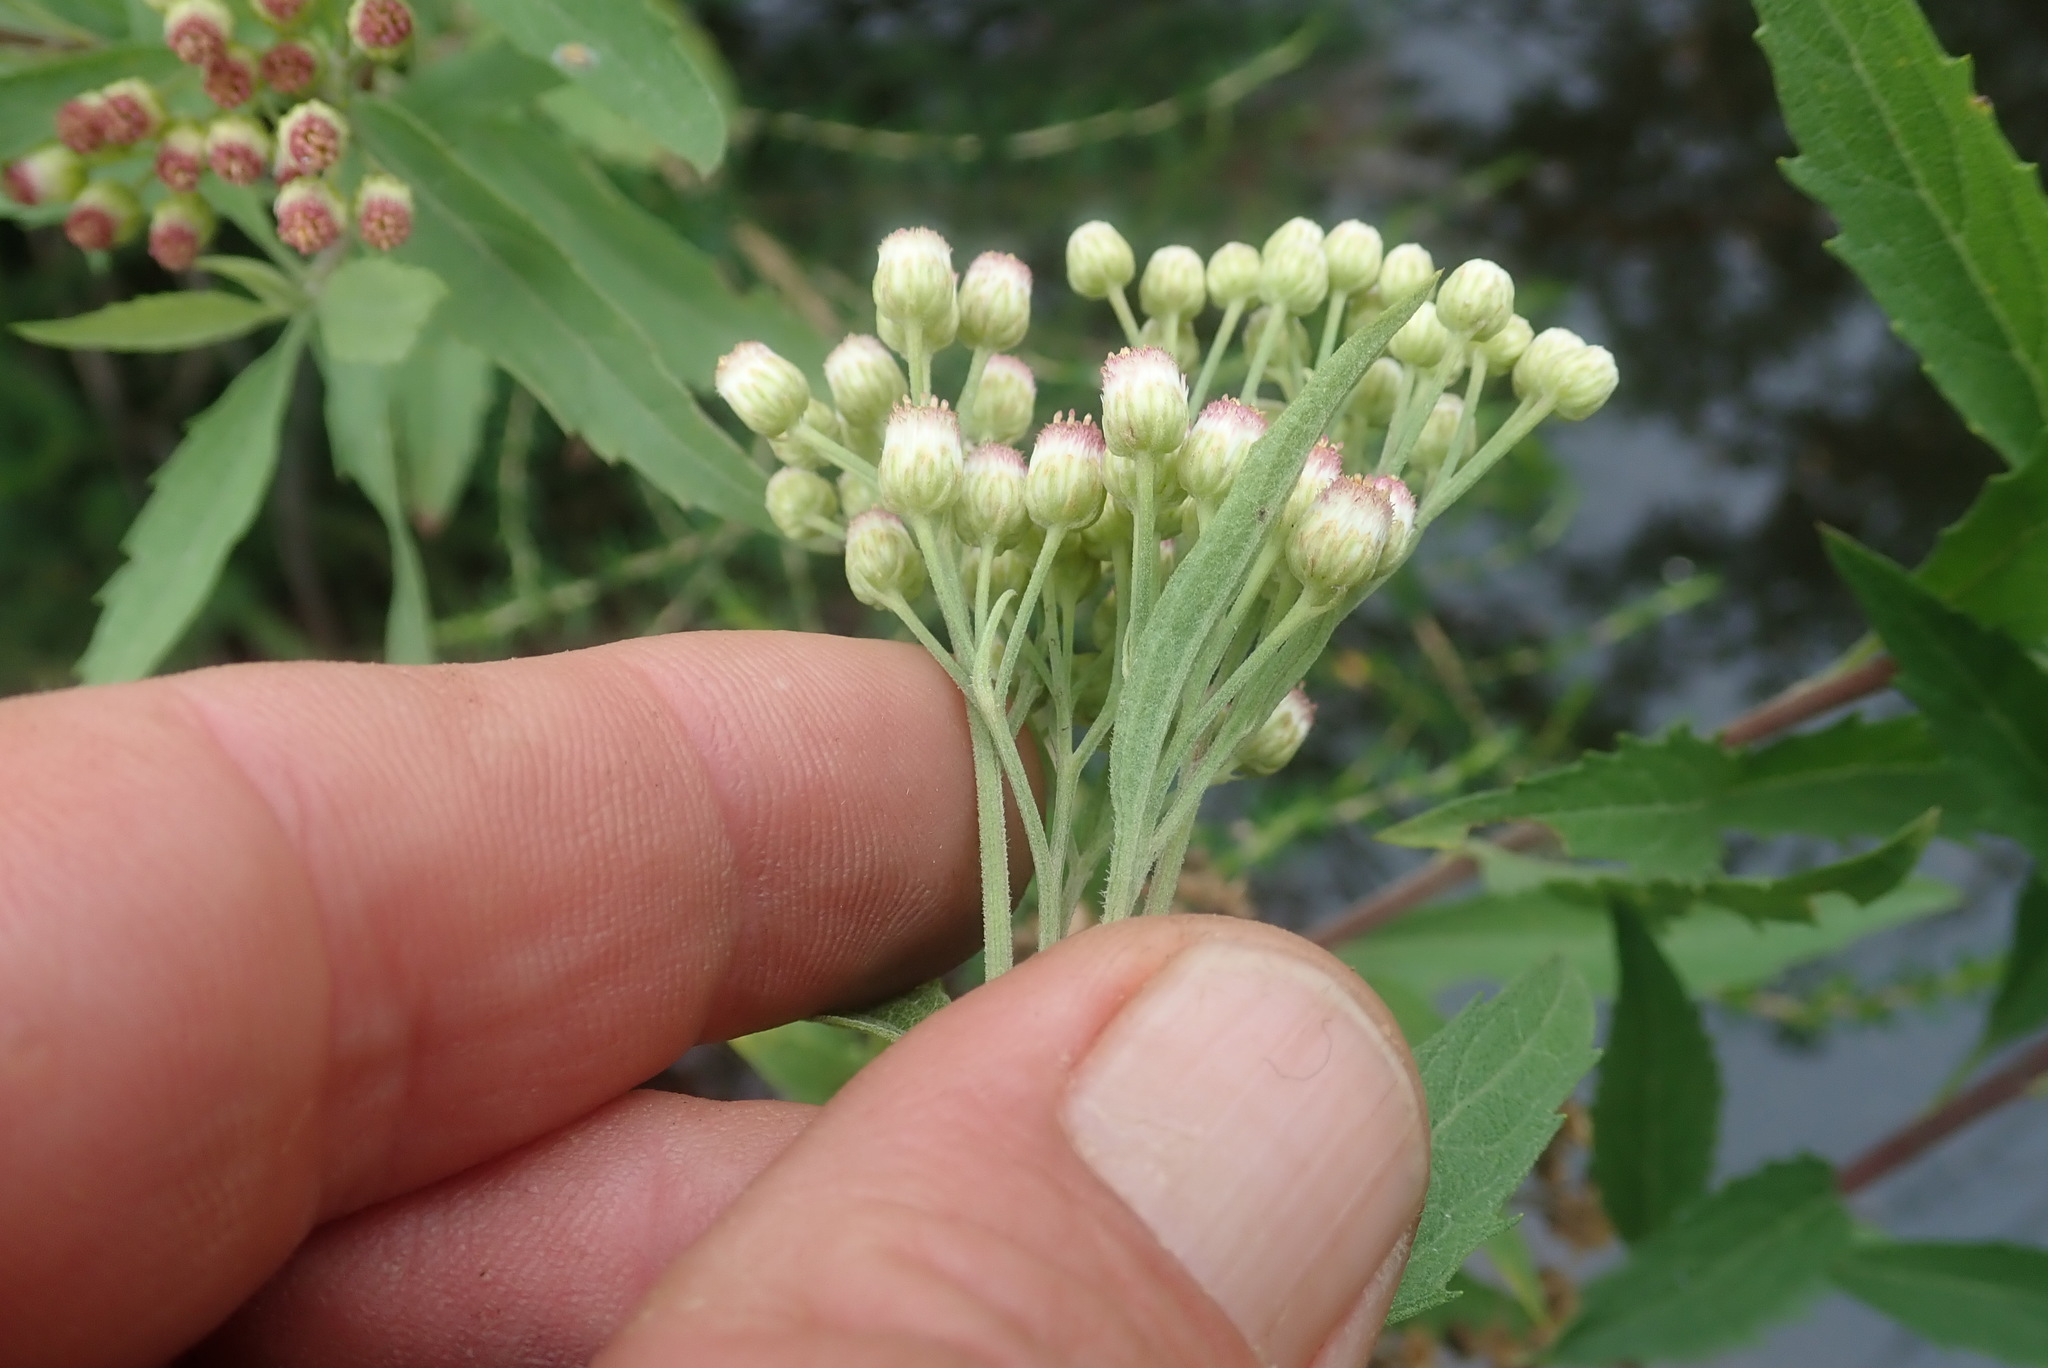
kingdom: Plantae
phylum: Tracheophyta
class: Magnoliopsida
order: Asterales
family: Asteraceae
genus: Nidorella
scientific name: Nidorella ivifolia
